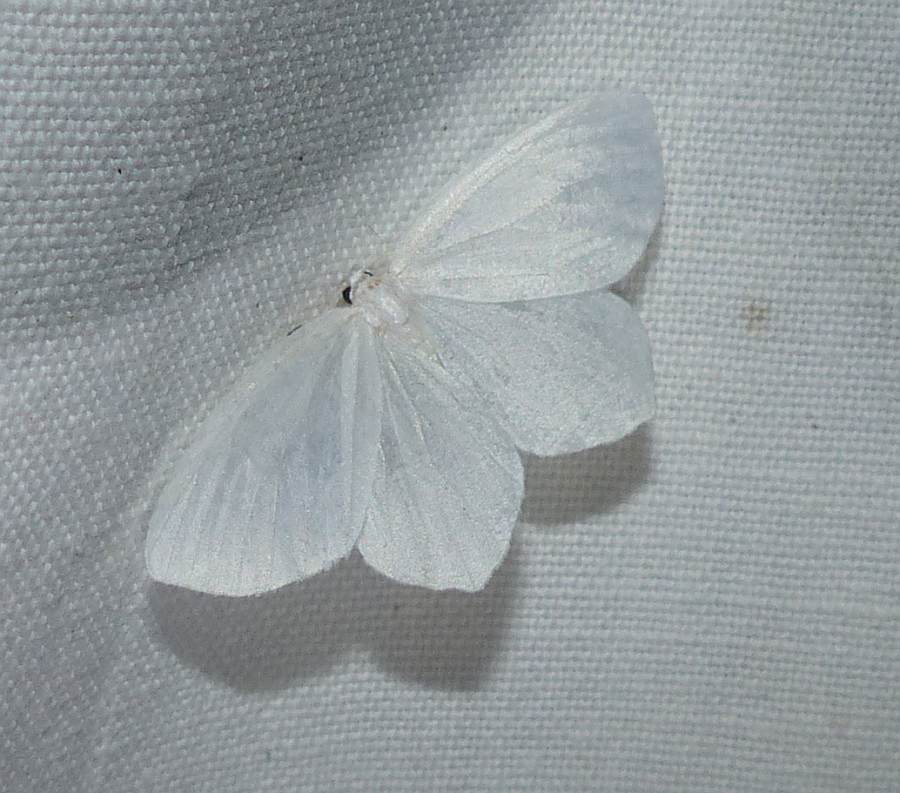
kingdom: Animalia
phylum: Arthropoda
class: Insecta
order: Lepidoptera
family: Geometridae
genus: Eugonobapta
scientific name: Eugonobapta nivosaria
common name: Snowy geometer
